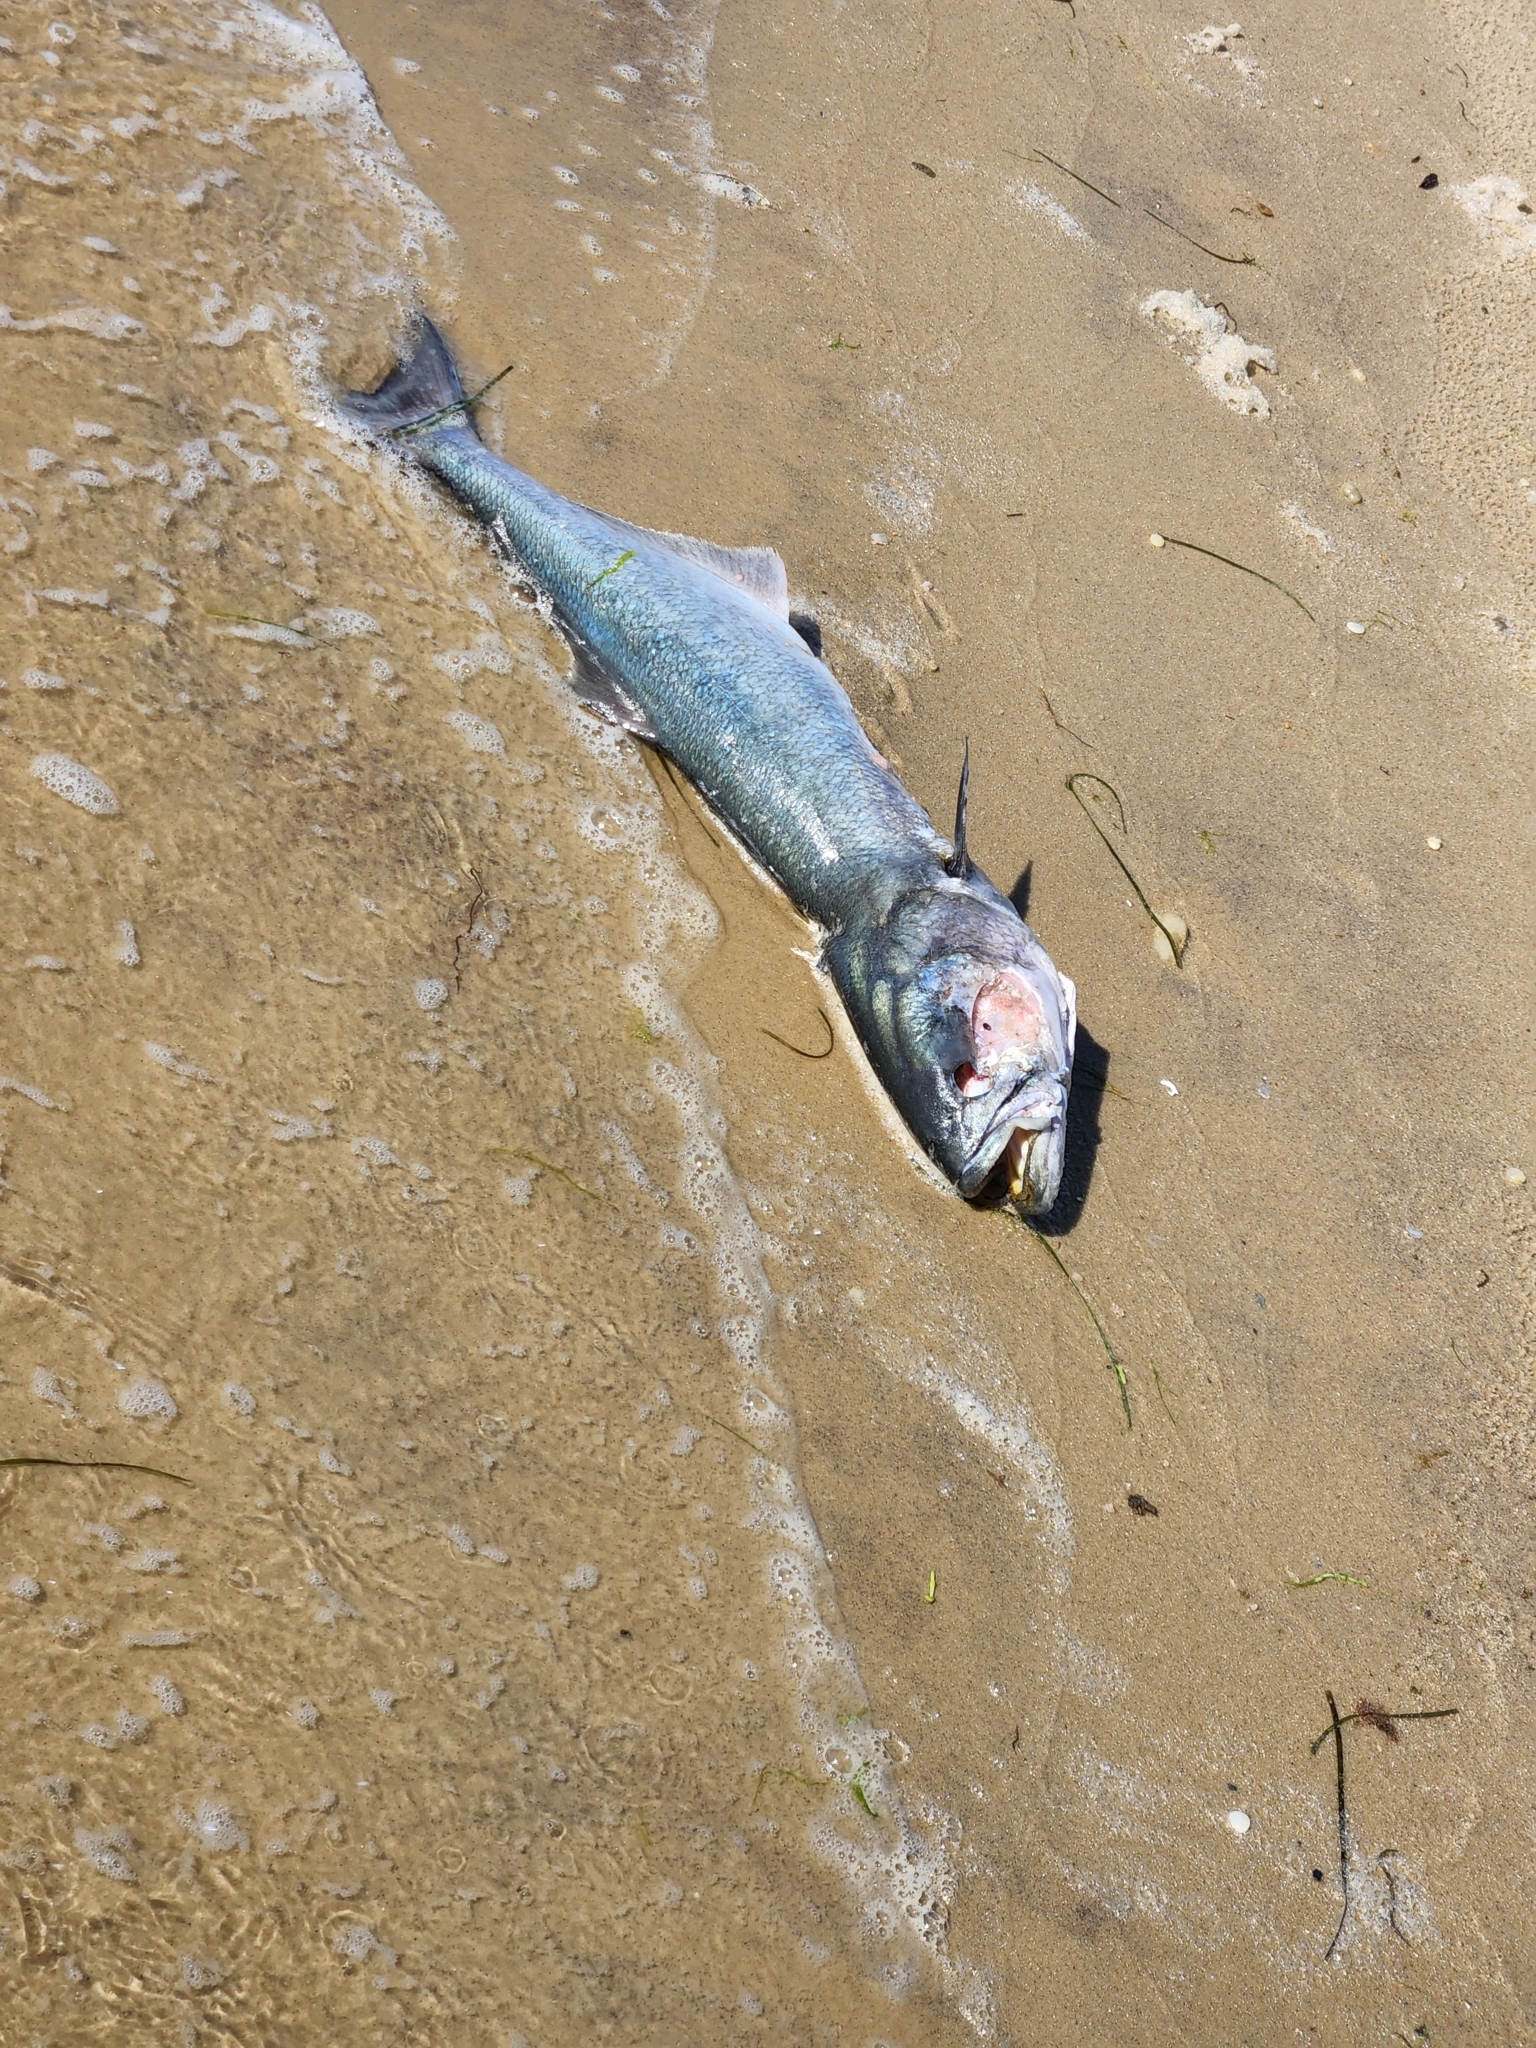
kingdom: Animalia
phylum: Chordata
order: Perciformes
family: Pomatomidae
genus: Pomatomus
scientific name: Pomatomus saltatrix
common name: Bluefish
